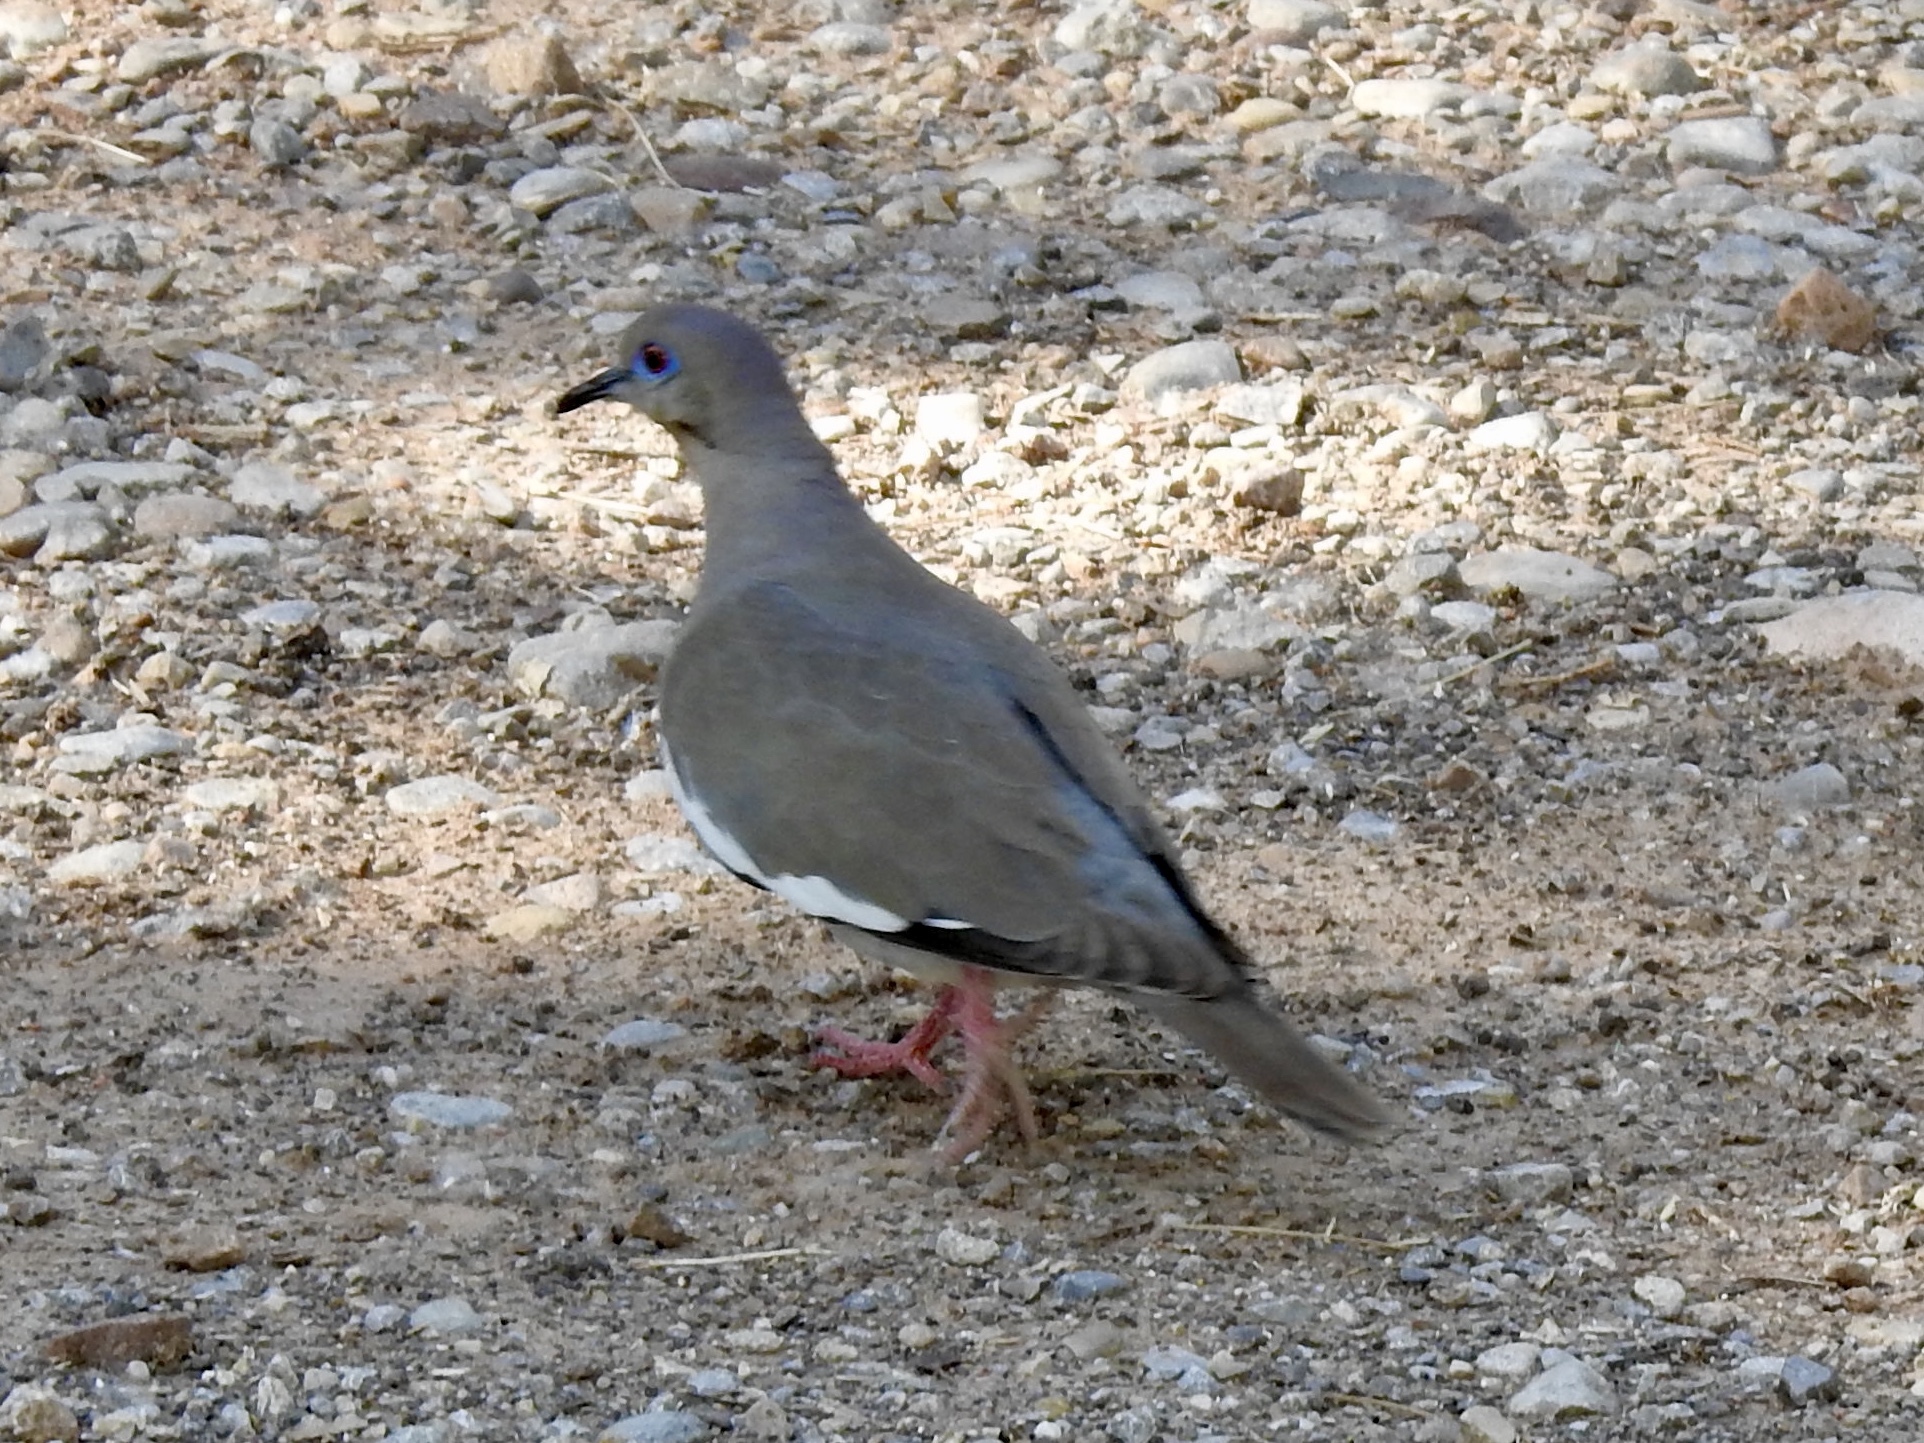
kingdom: Animalia
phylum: Chordata
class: Aves
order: Columbiformes
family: Columbidae
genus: Zenaida
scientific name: Zenaida asiatica
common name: White-winged dove
